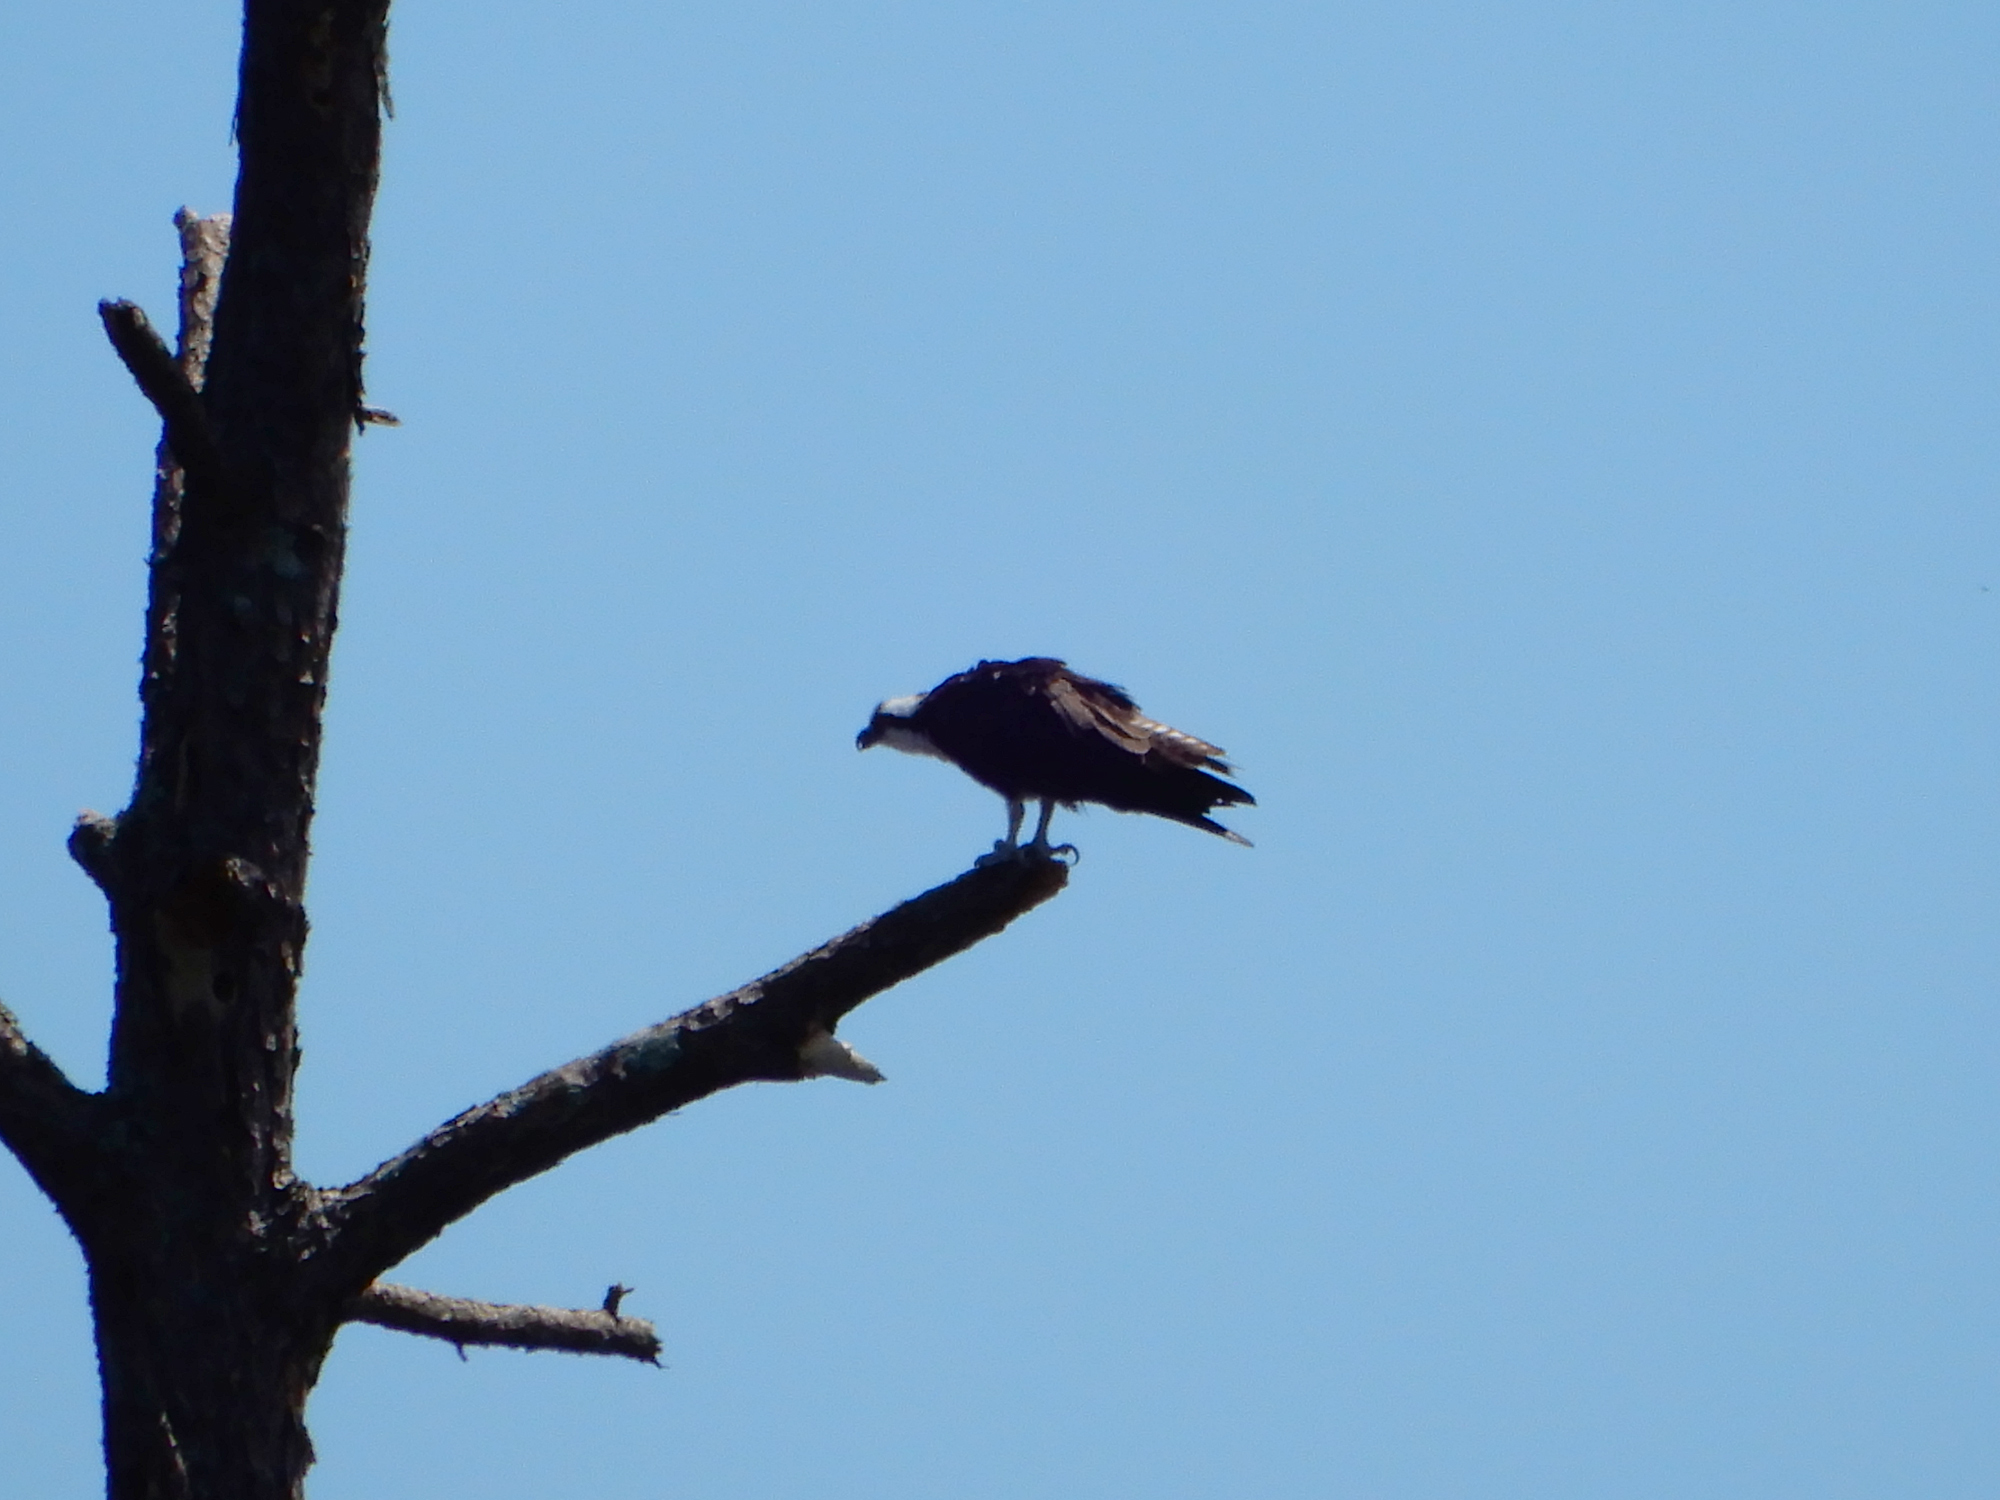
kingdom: Animalia
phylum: Chordata
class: Aves
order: Accipitriformes
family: Pandionidae
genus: Pandion
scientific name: Pandion haliaetus
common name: Osprey
